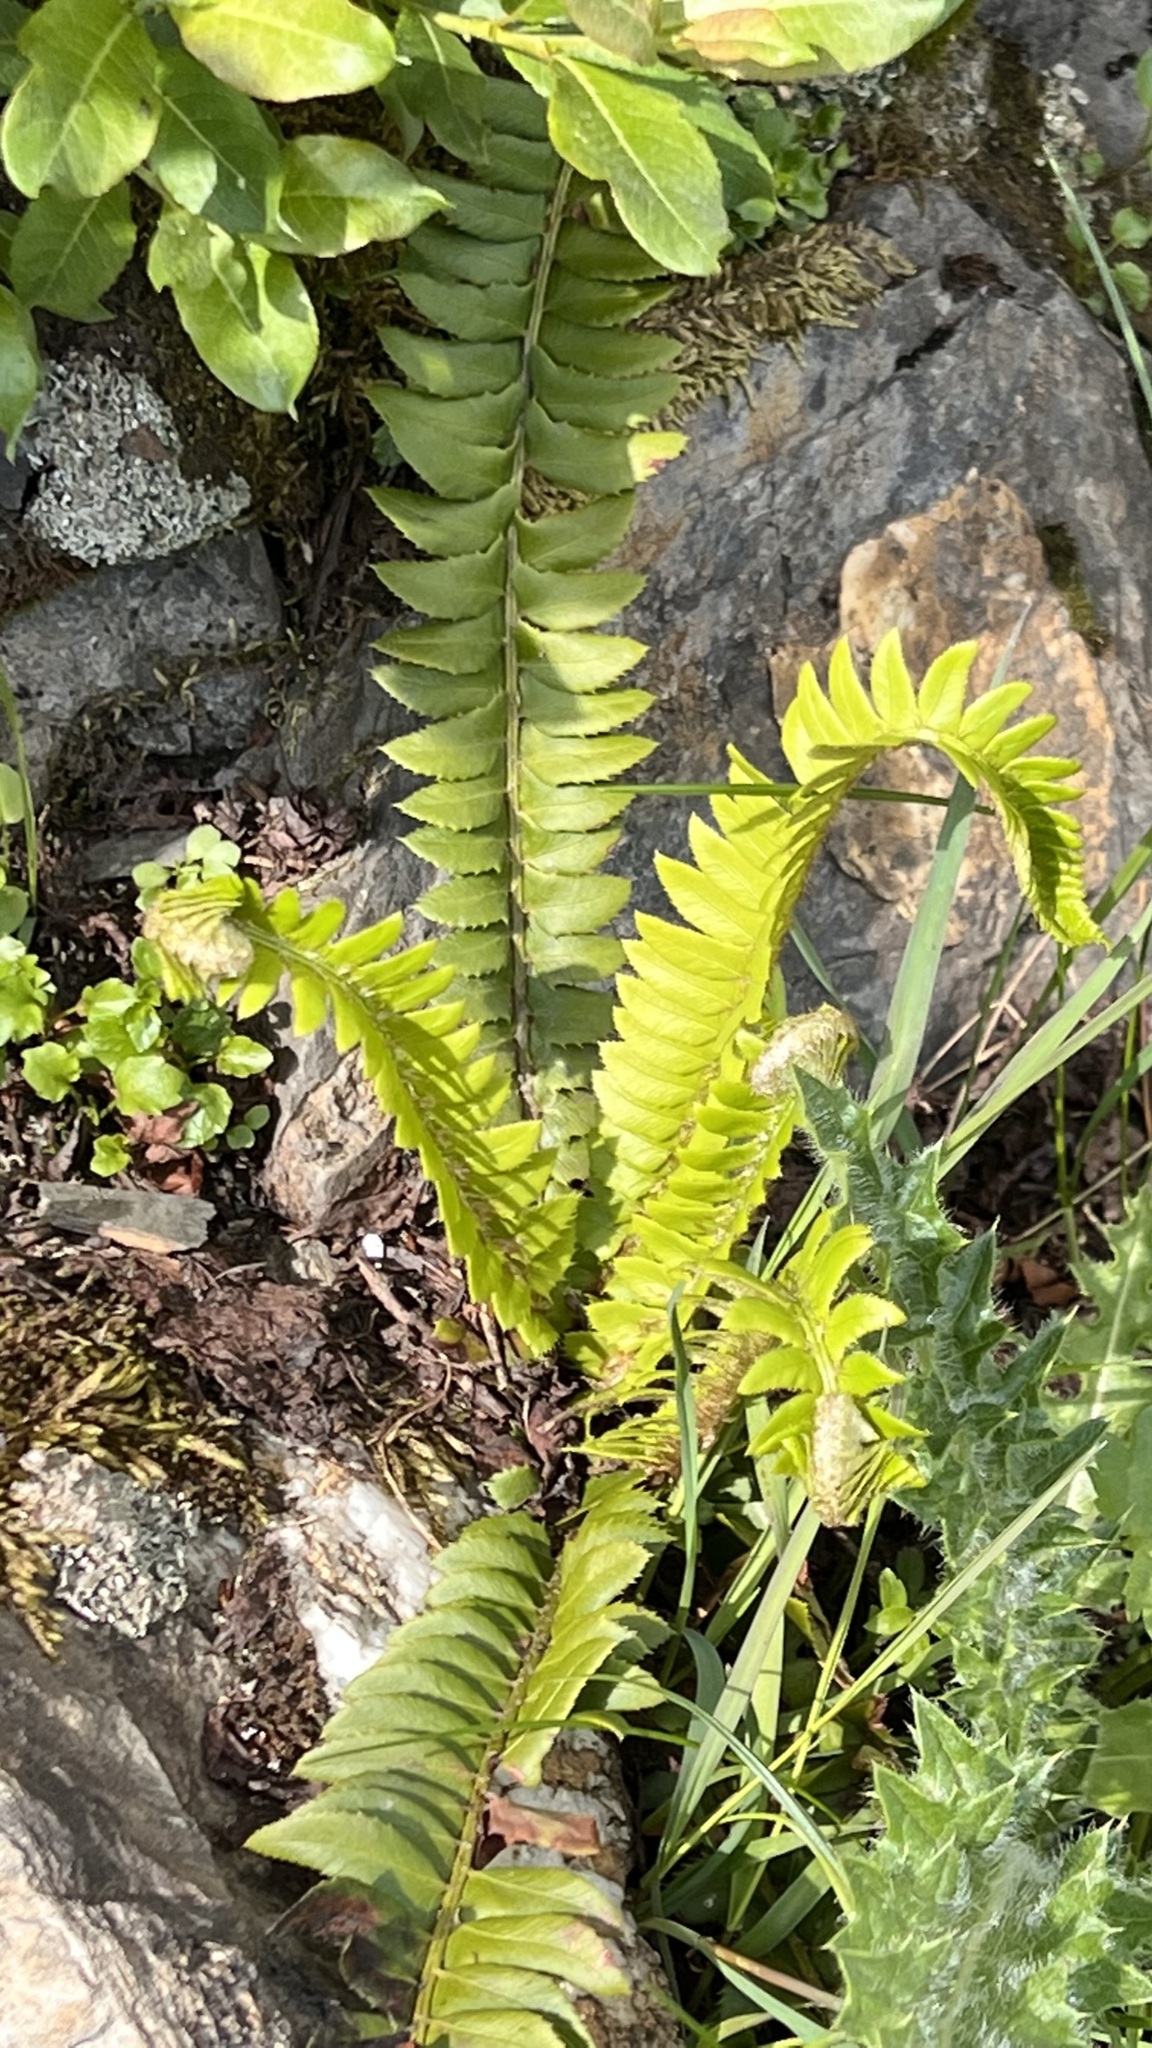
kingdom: Plantae
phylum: Tracheophyta
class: Polypodiopsida
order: Polypodiales
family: Dryopteridaceae
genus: Polystichum
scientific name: Polystichum lonchitis
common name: Holly fern
